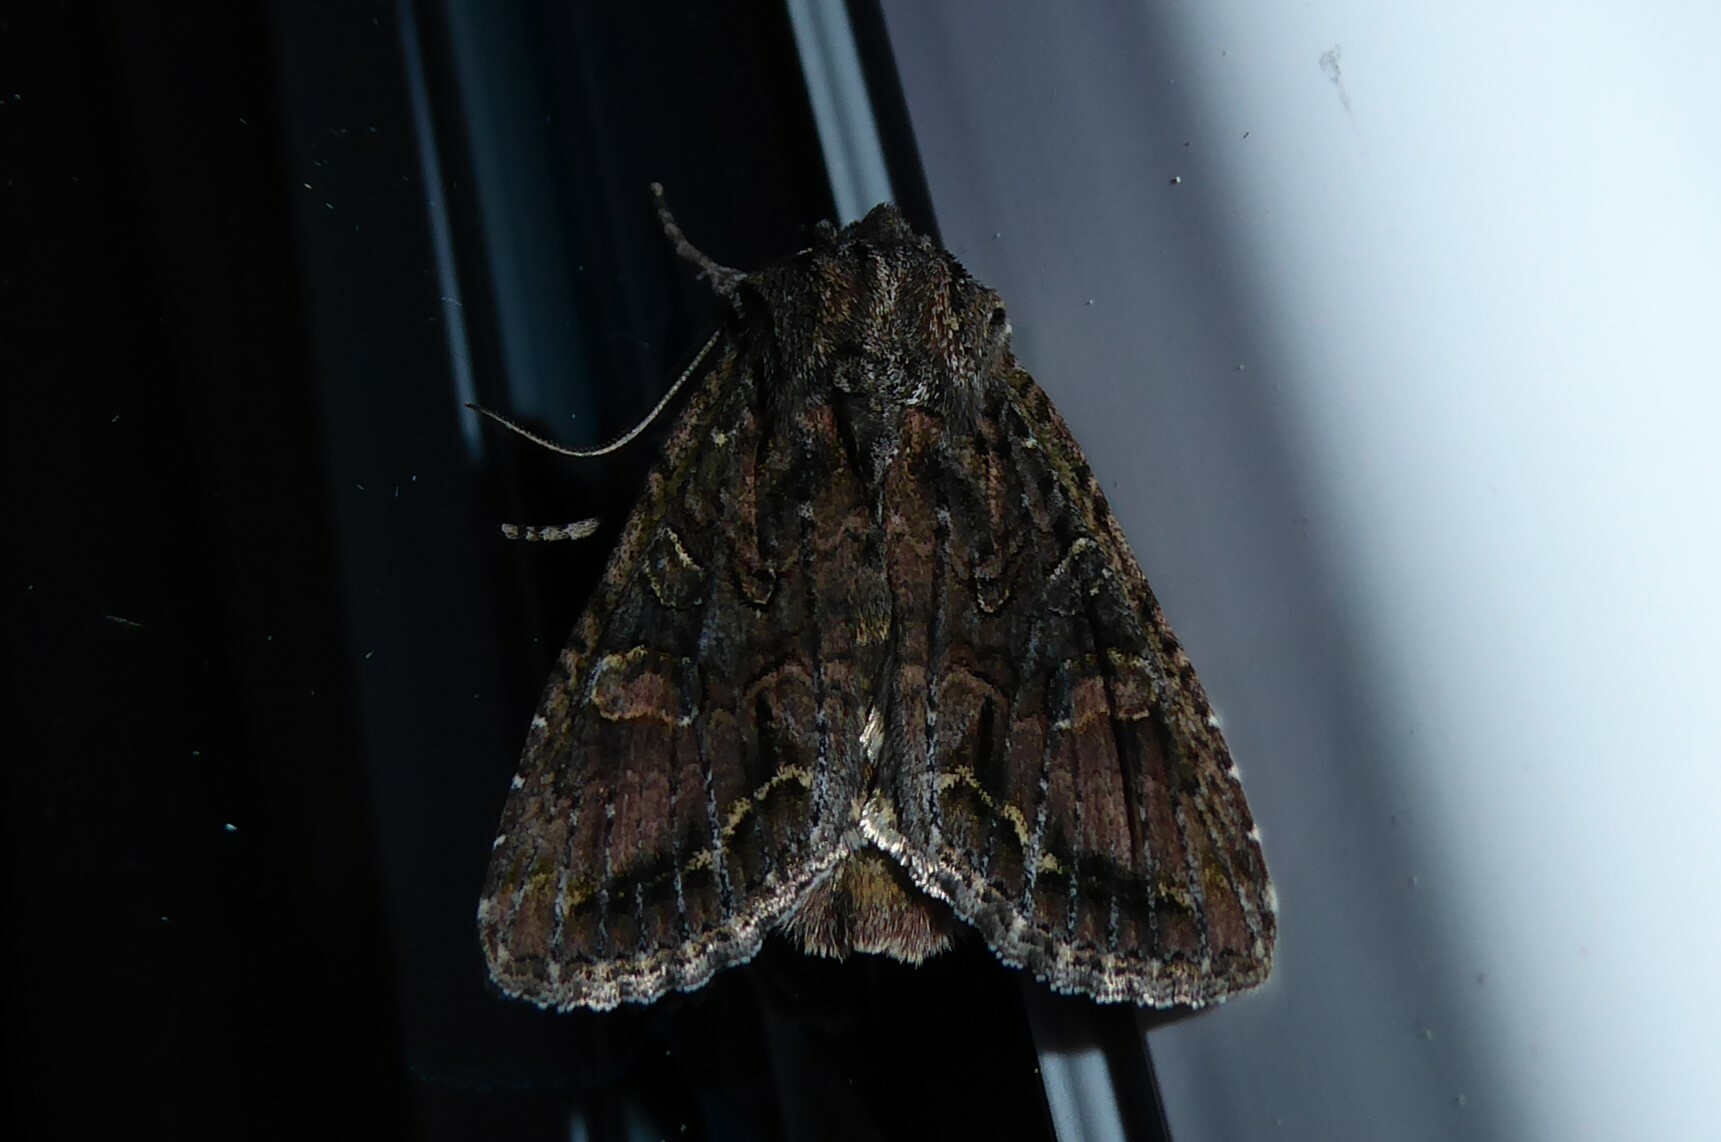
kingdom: Animalia
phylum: Arthropoda
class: Insecta
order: Lepidoptera
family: Noctuidae
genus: Ichneutica
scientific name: Ichneutica mutans
